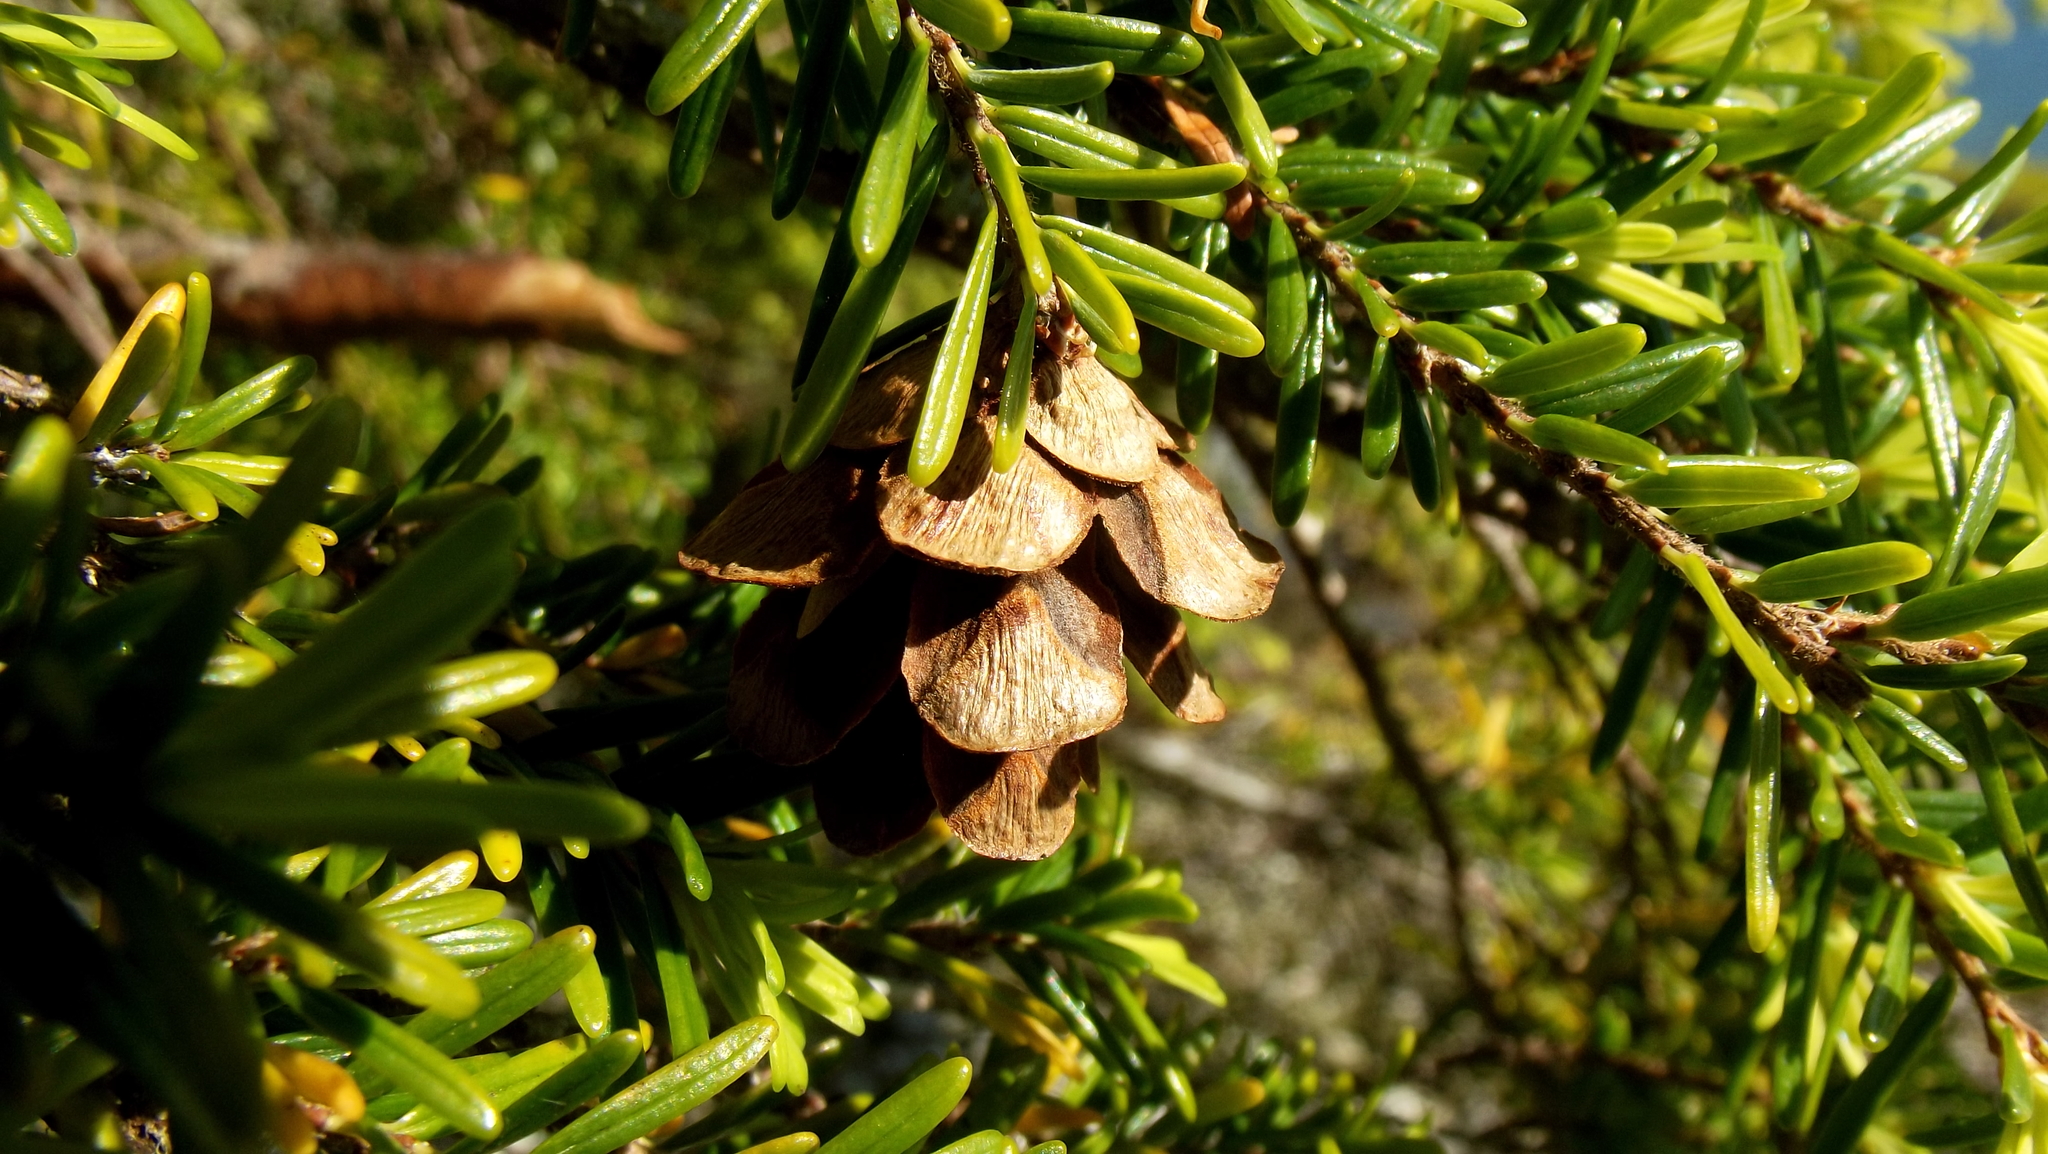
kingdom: Plantae
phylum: Tracheophyta
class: Pinopsida
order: Pinales
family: Pinaceae
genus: Tsuga
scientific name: Tsuga heterophylla
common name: Western hemlock
